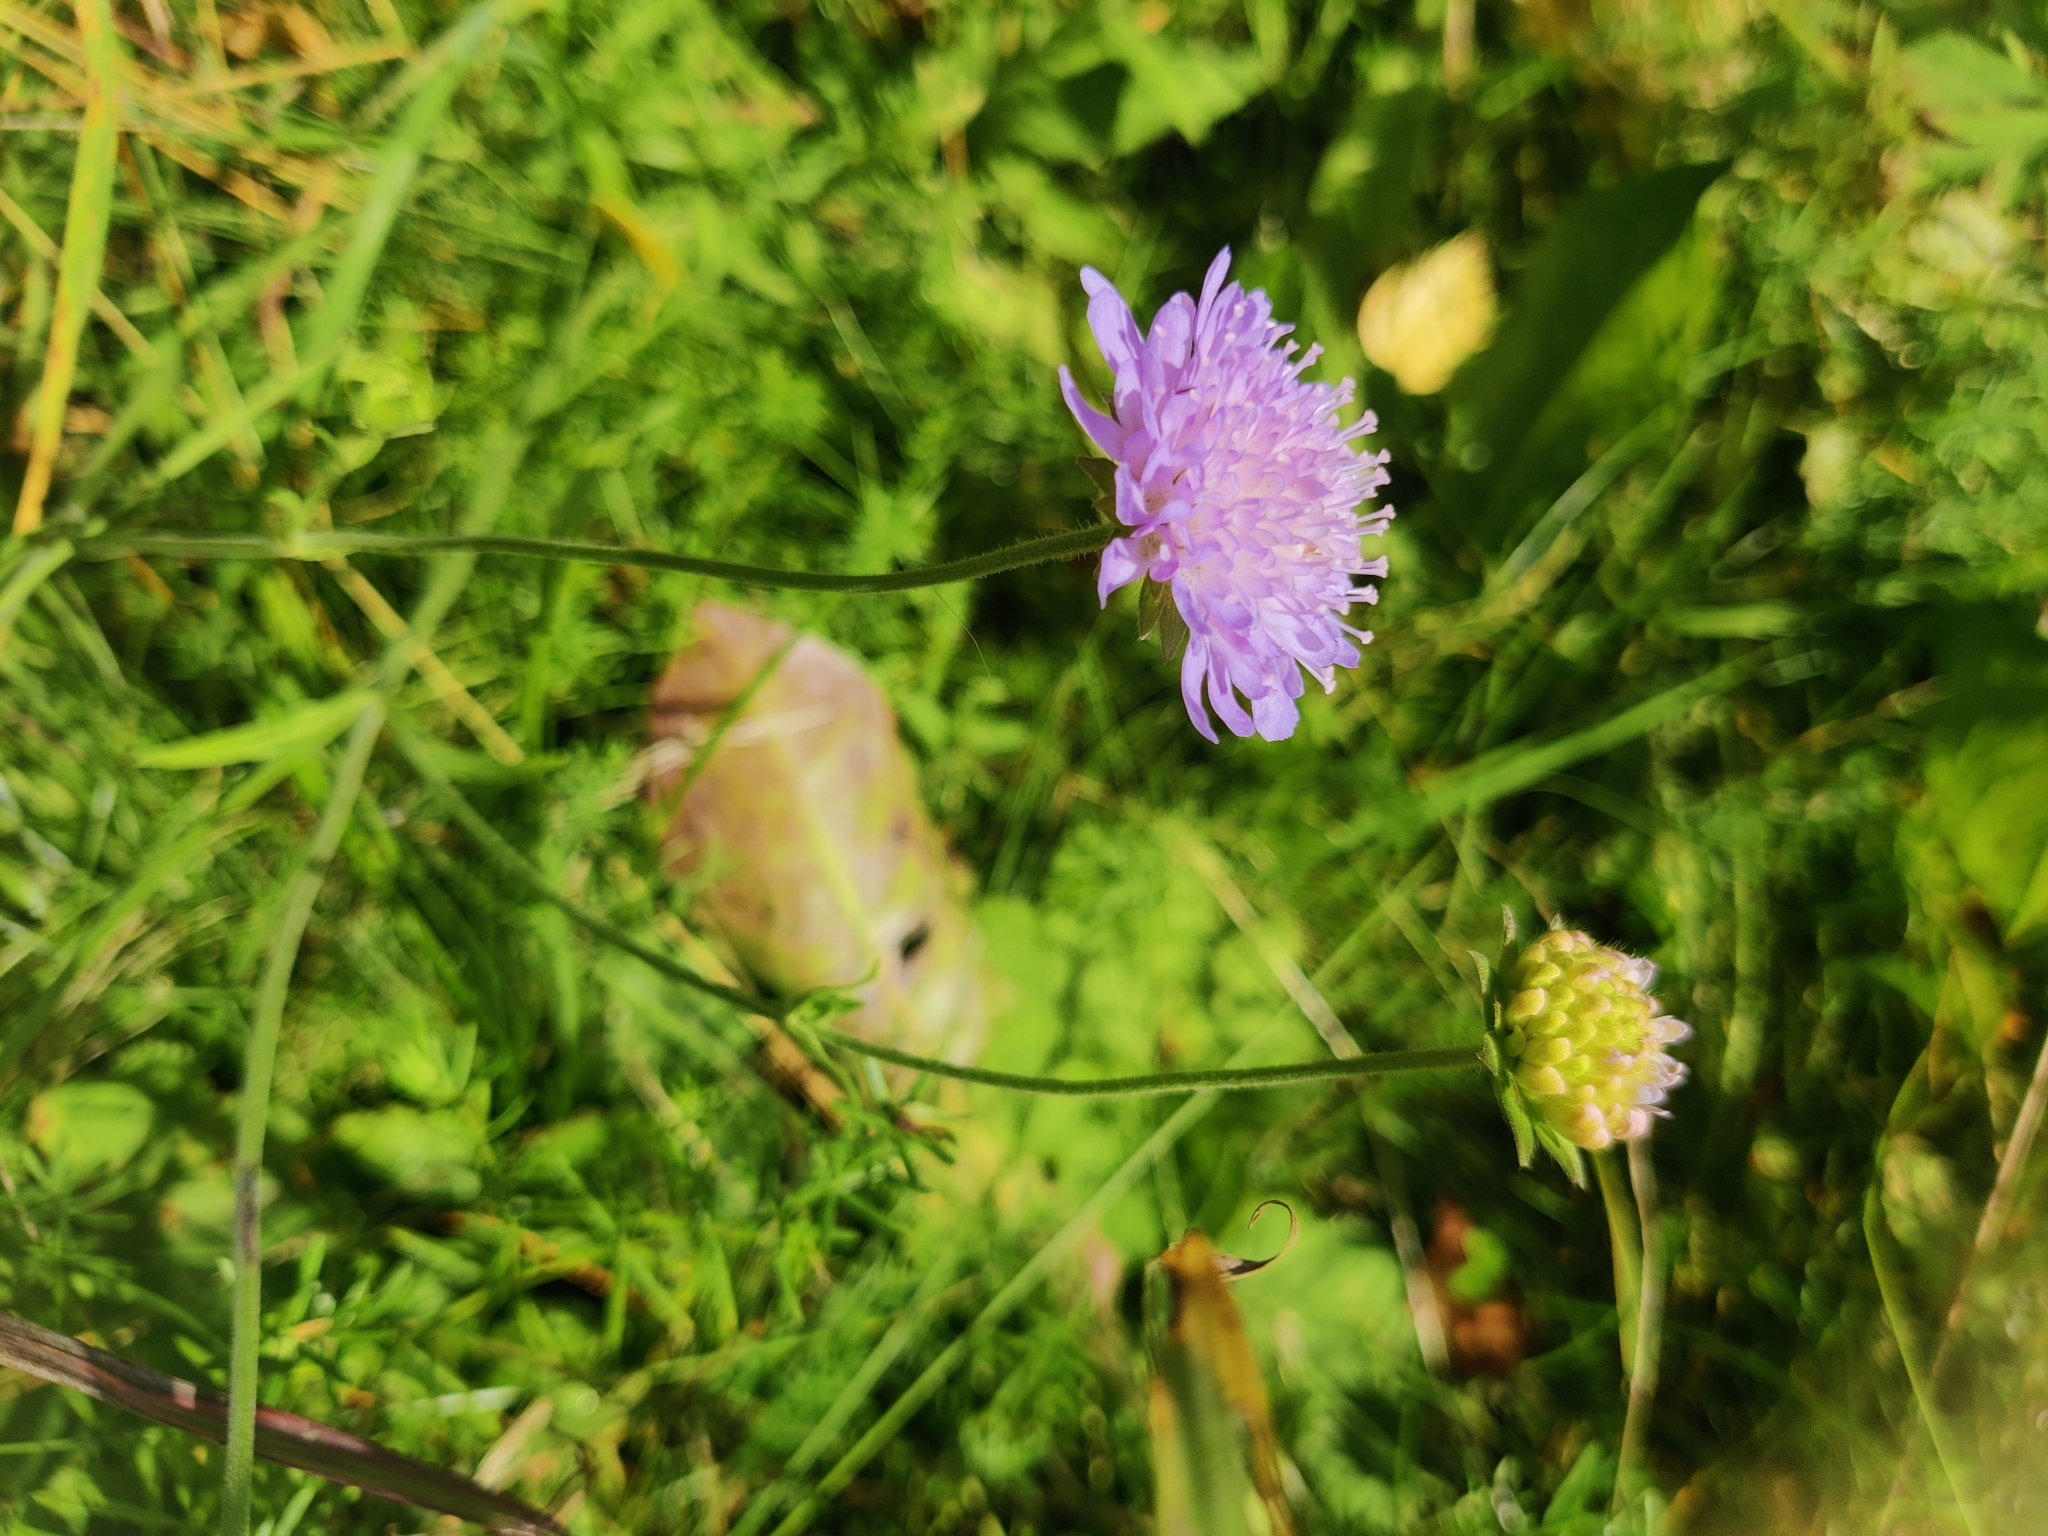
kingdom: Plantae
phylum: Tracheophyta
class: Magnoliopsida
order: Dipsacales
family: Caprifoliaceae
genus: Knautia
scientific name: Knautia arvensis
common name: Field scabiosa
